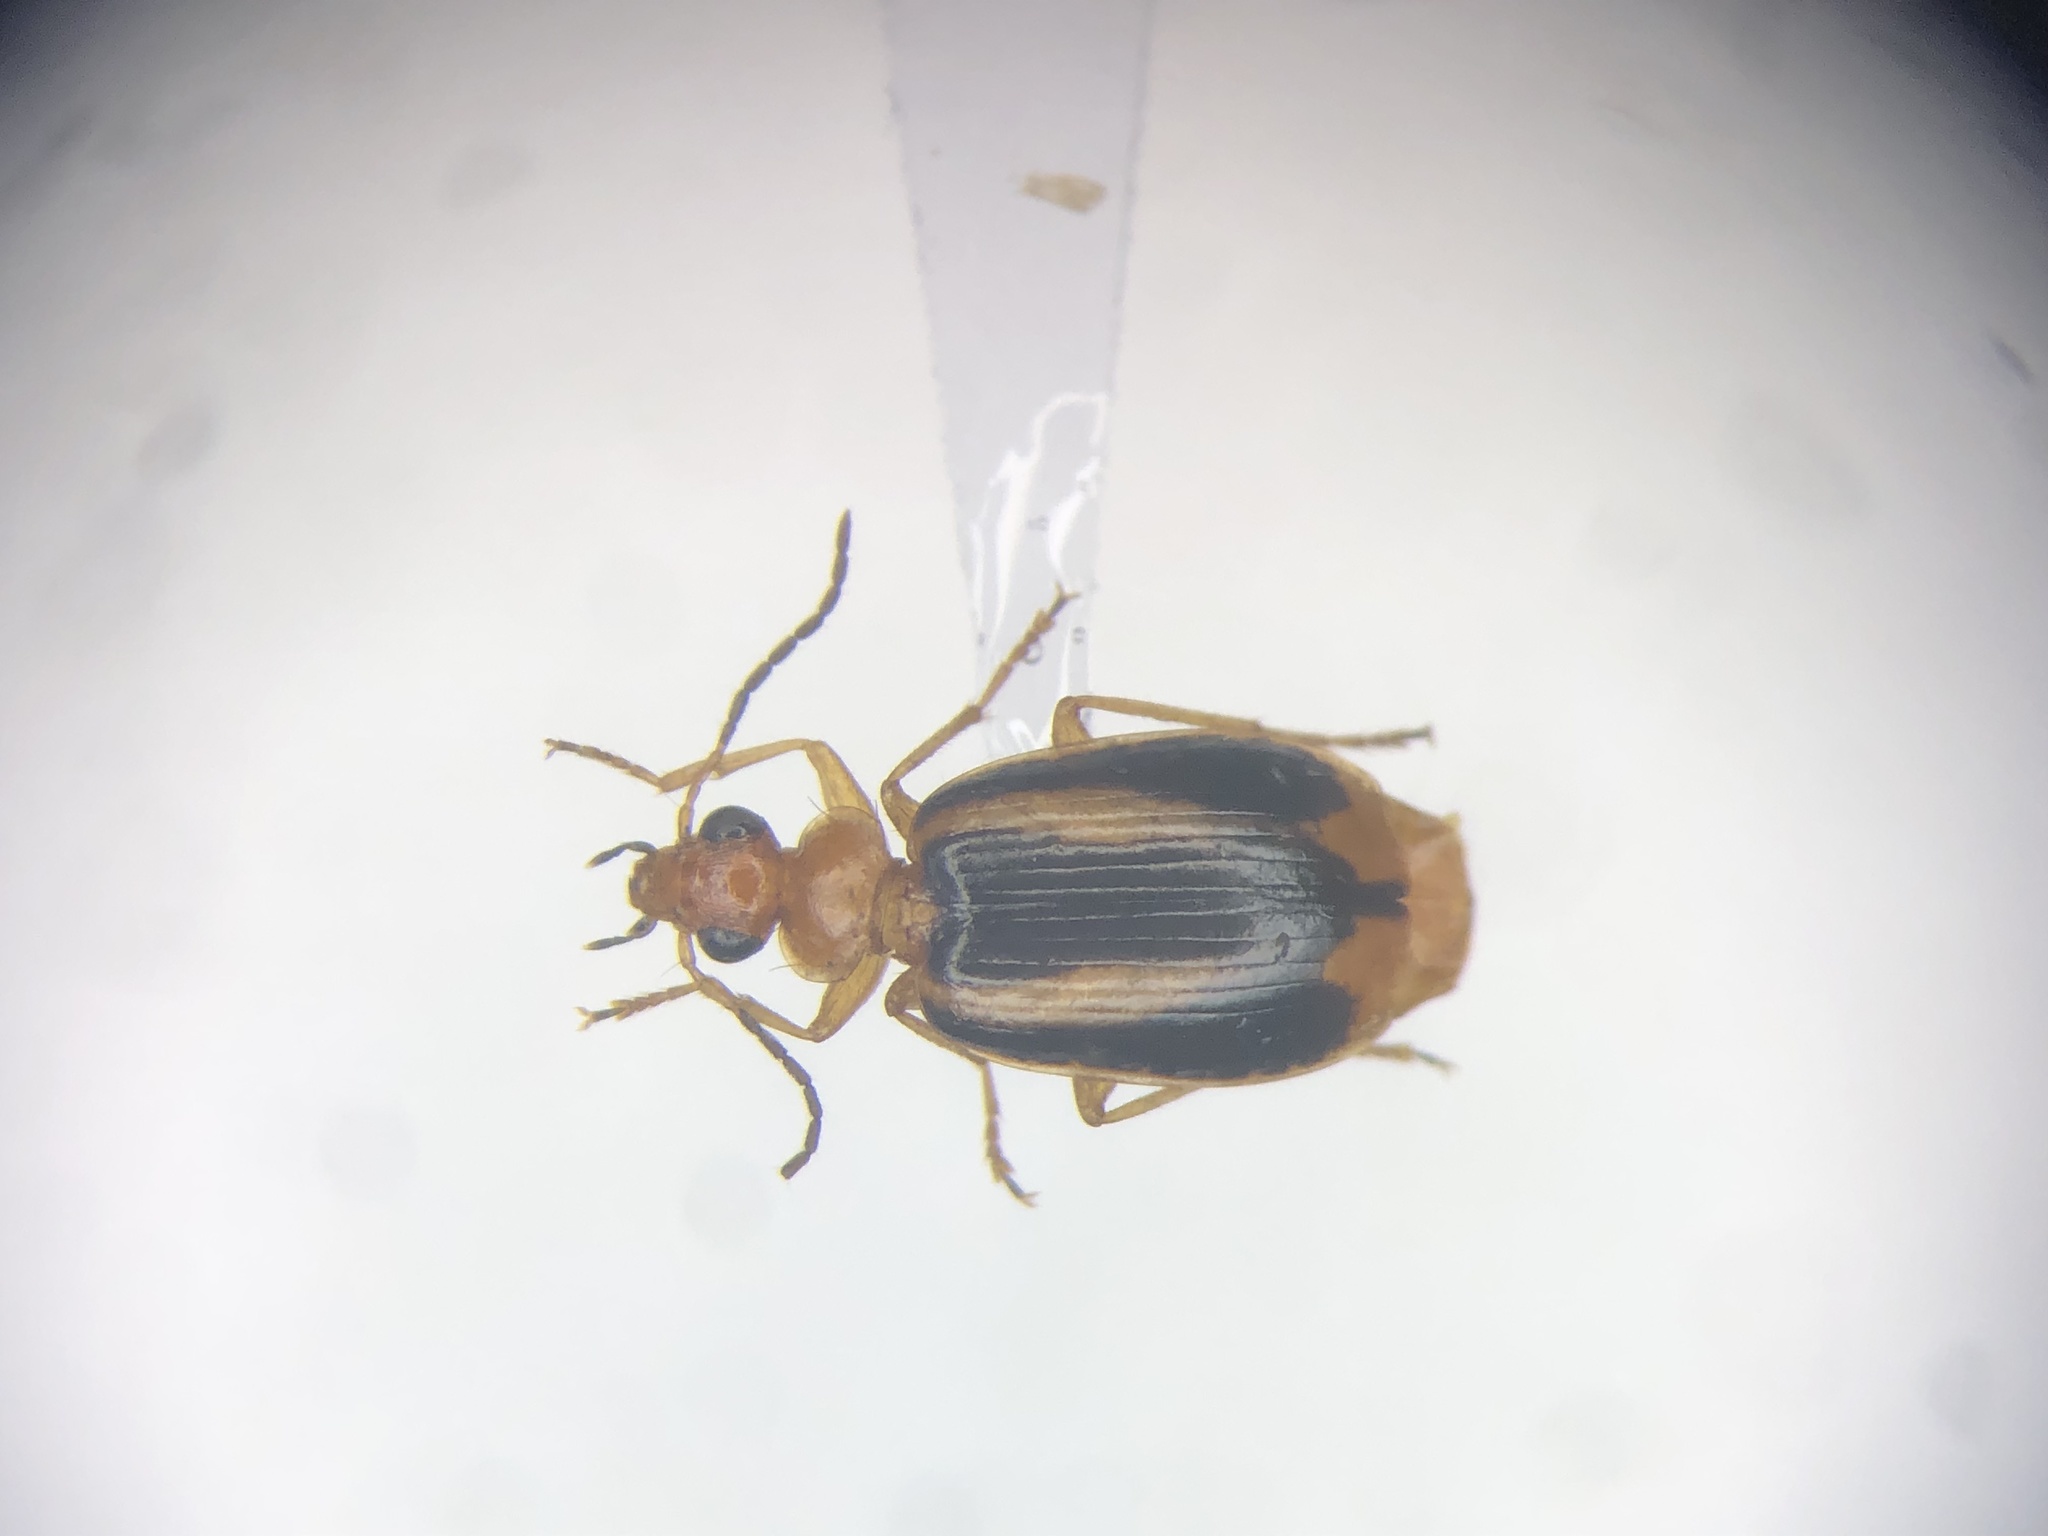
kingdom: Animalia
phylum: Arthropoda
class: Insecta
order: Coleoptera
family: Carabidae
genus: Lebia
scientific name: Lebia solea
